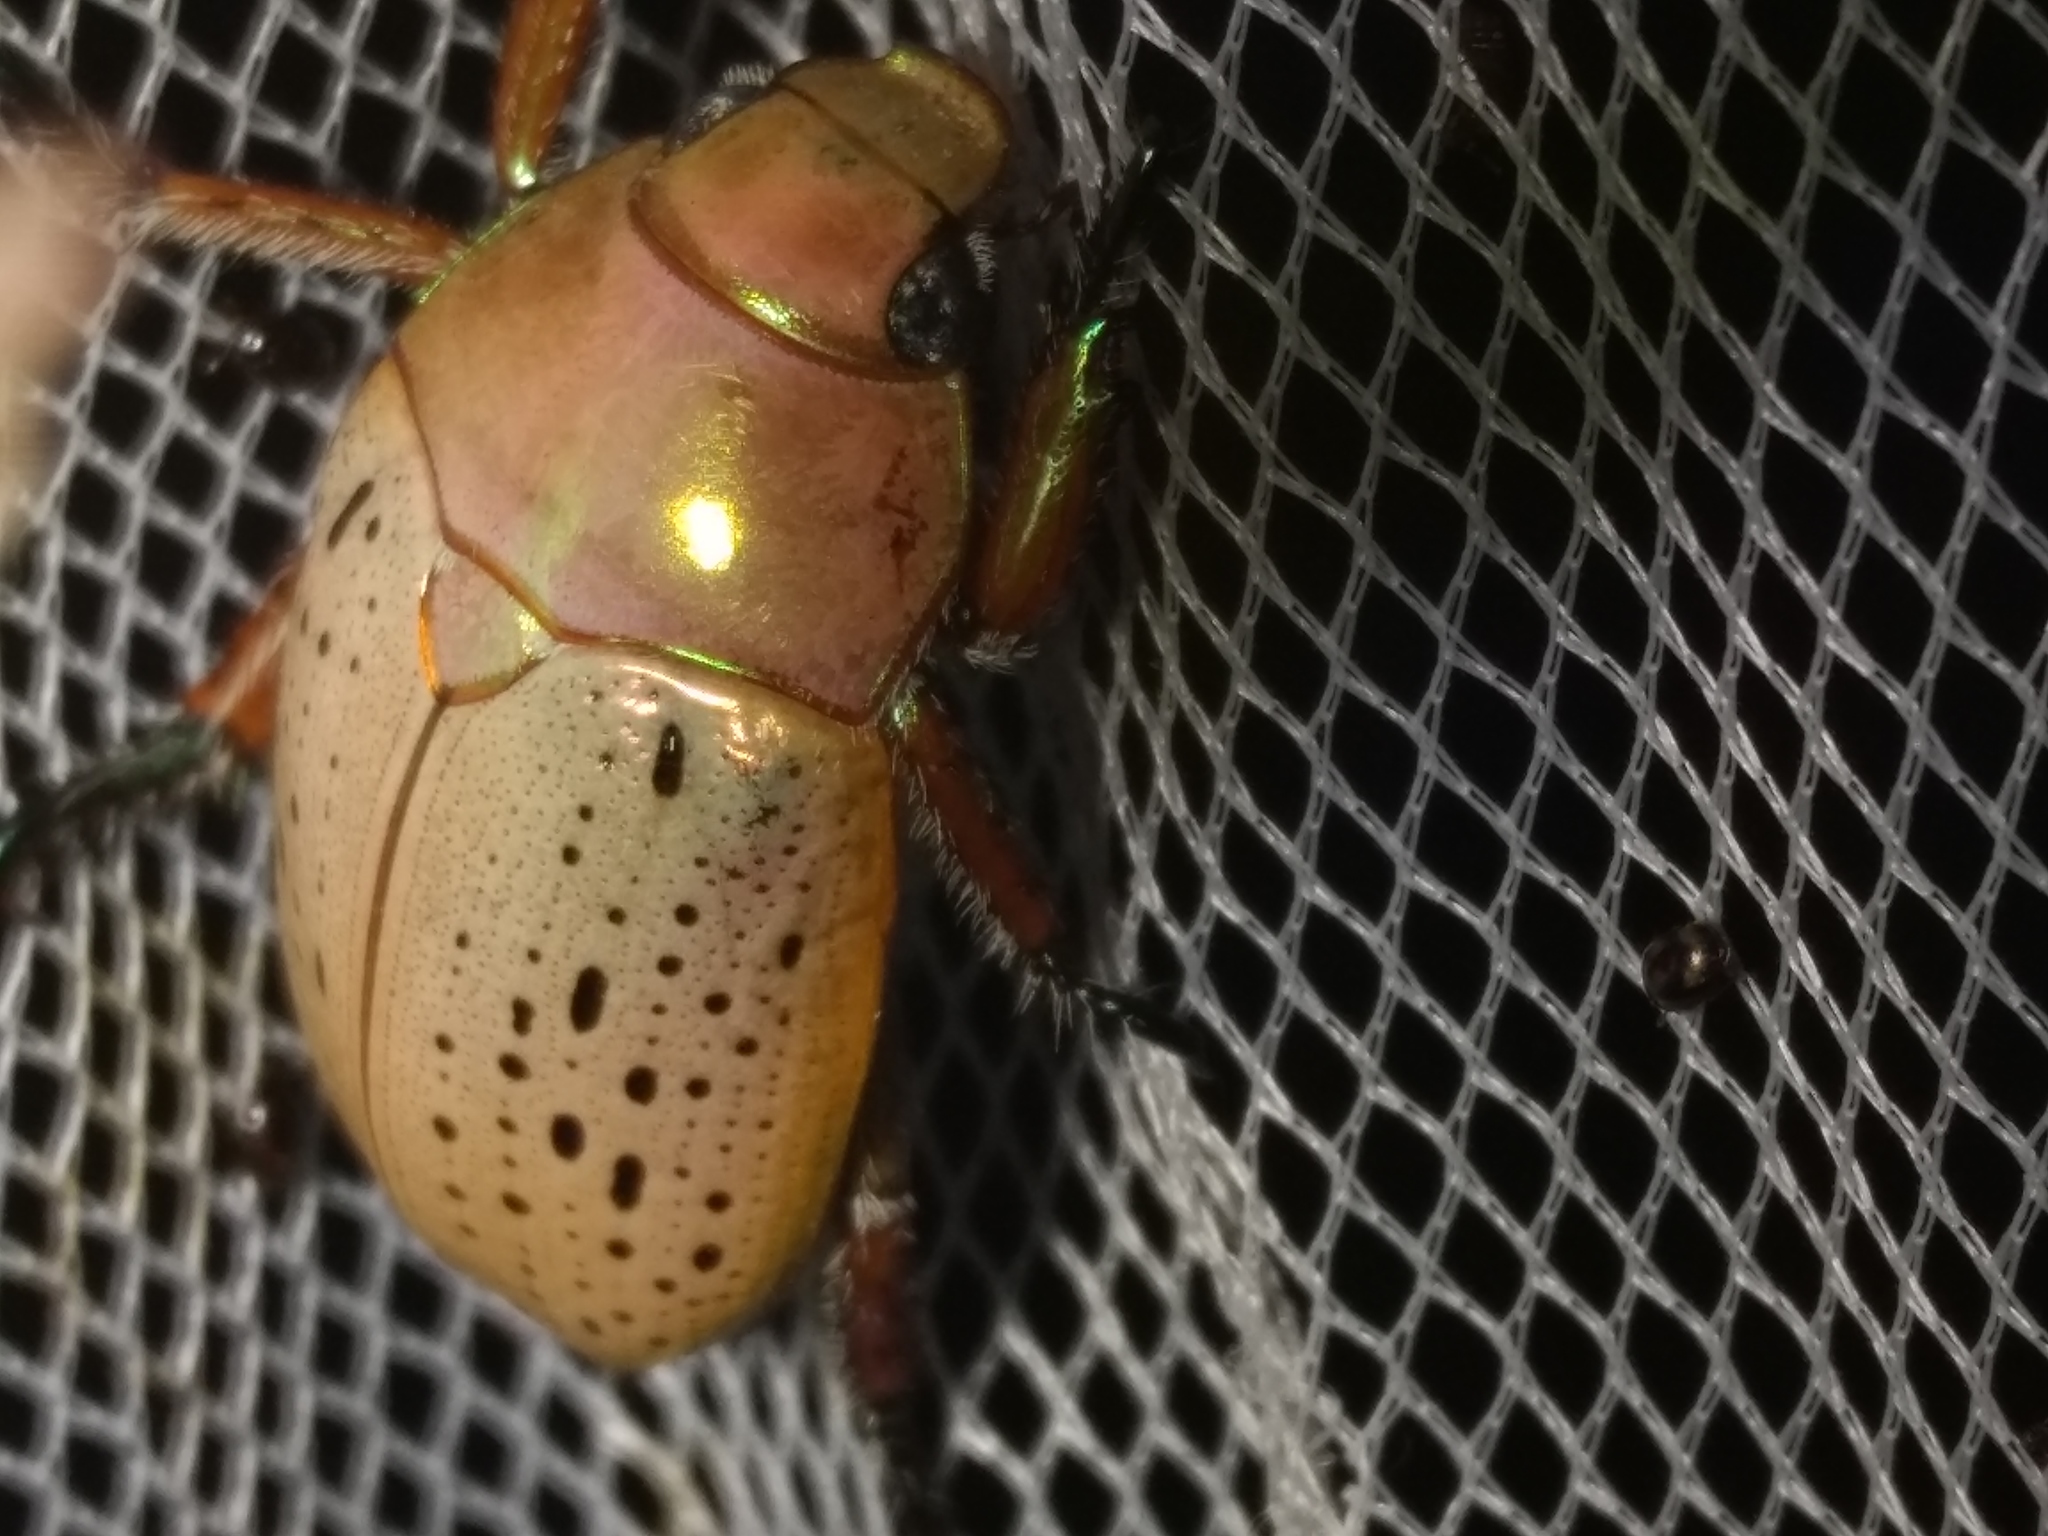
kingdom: Animalia
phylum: Arthropoda
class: Insecta
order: Coleoptera
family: Scarabaeidae
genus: Anoplognathus
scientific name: Anoplognathus porosus
